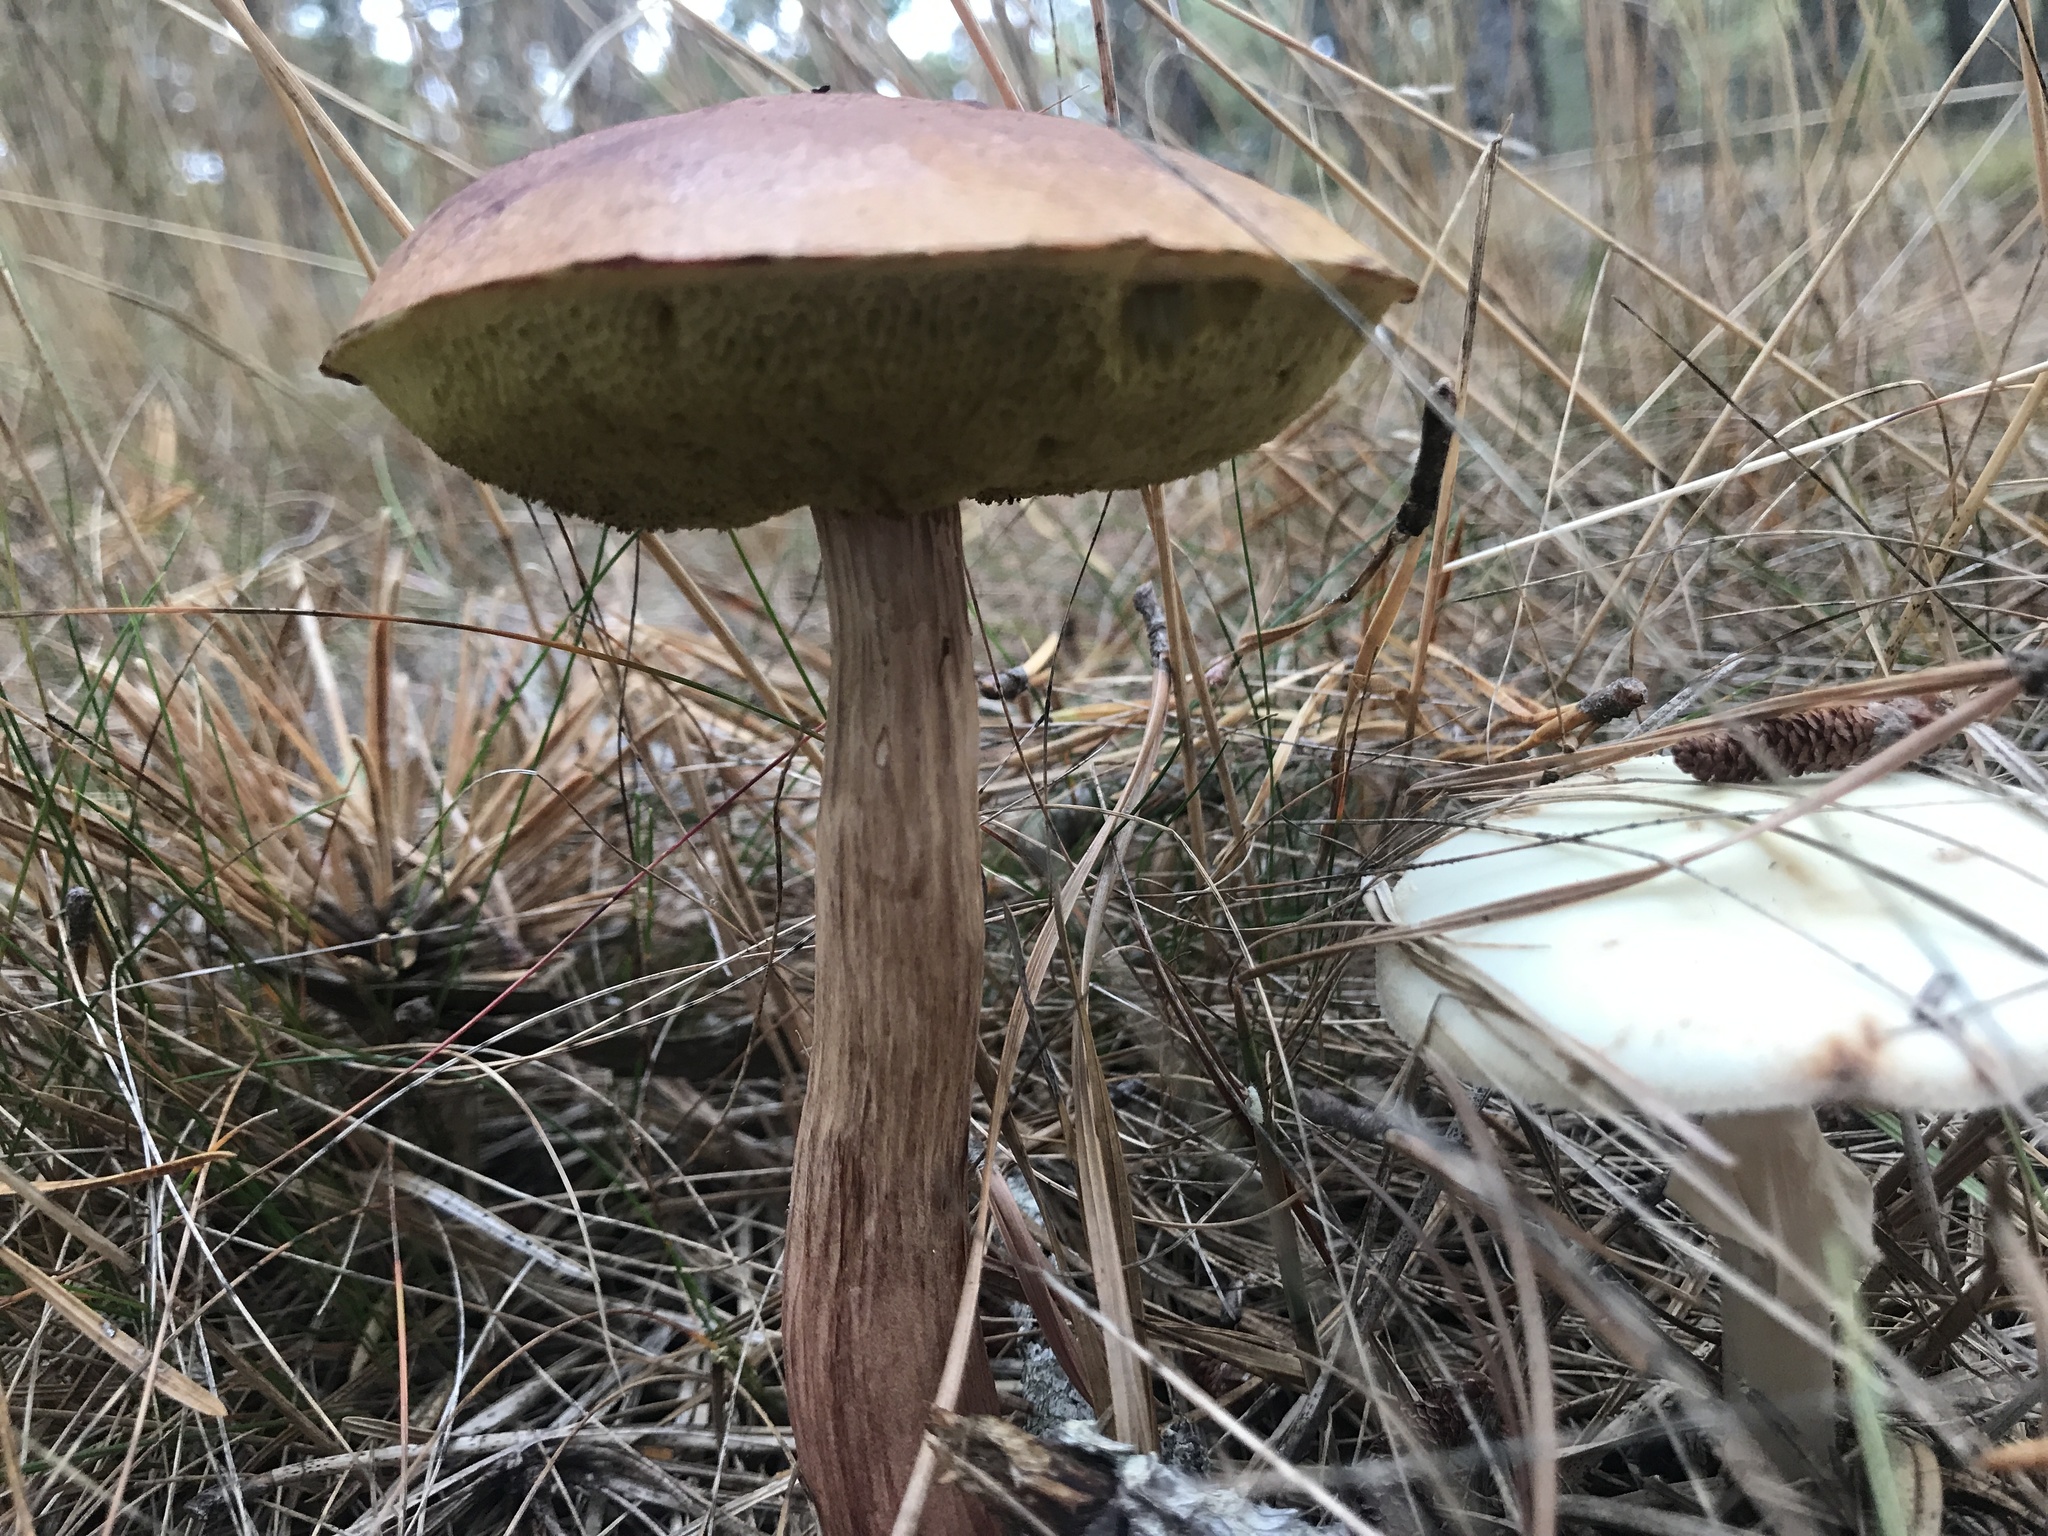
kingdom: Fungi
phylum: Basidiomycota
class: Agaricomycetes
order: Boletales
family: Boletaceae
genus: Aureoboletus
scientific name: Aureoboletus projectellus
